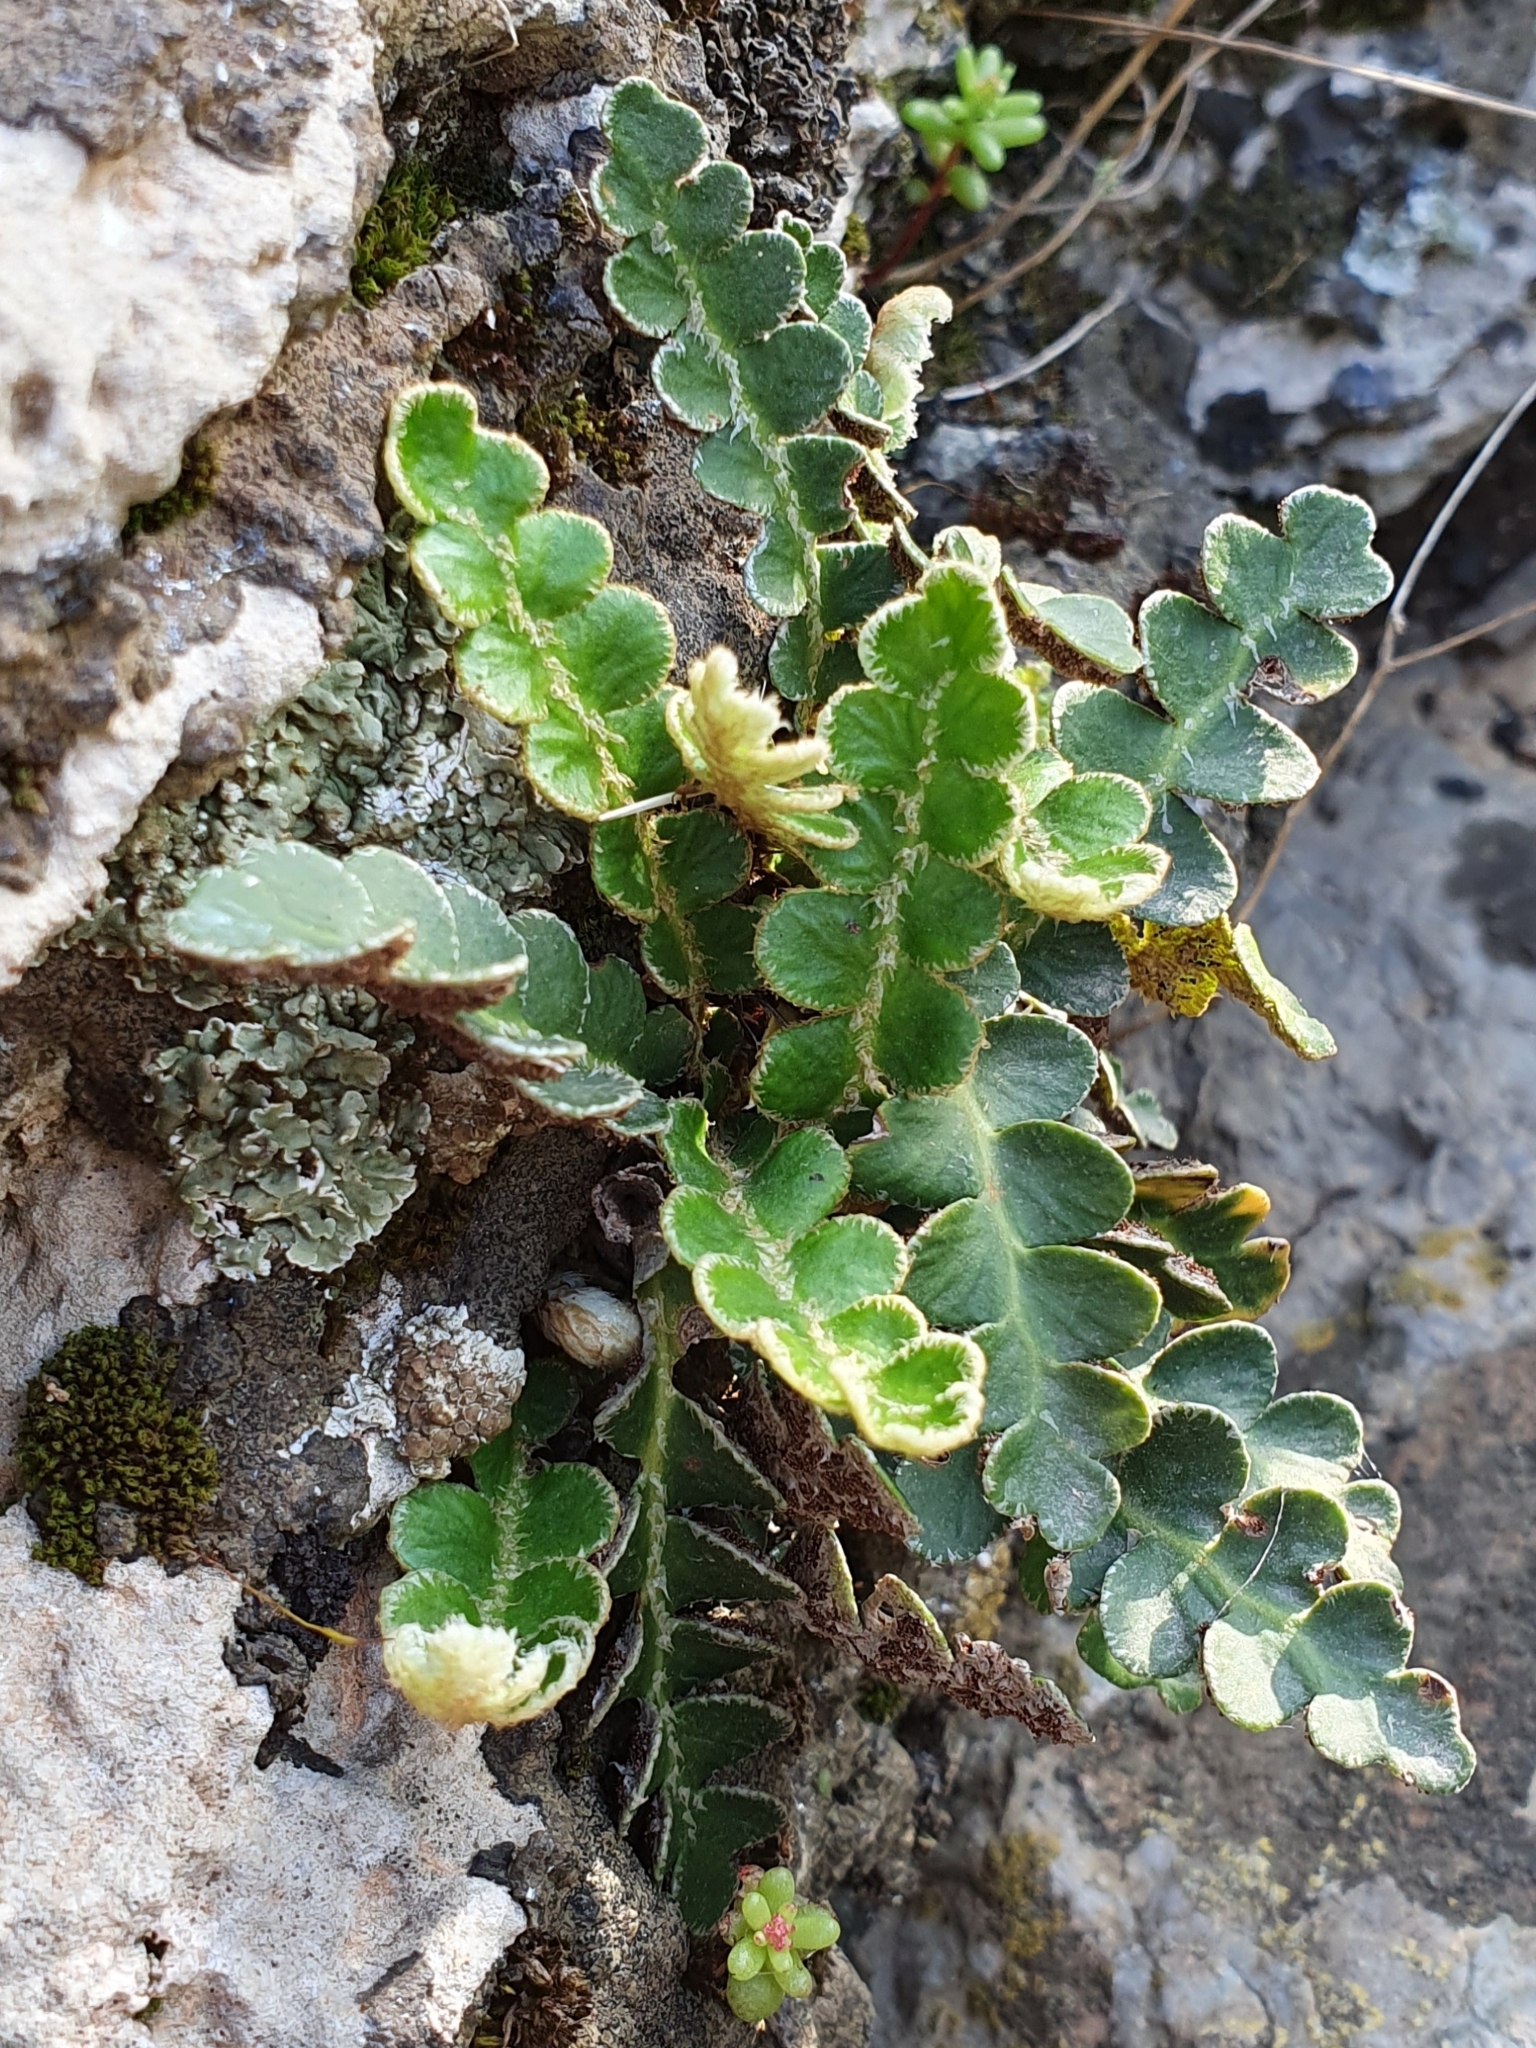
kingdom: Plantae
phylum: Tracheophyta
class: Polypodiopsida
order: Polypodiales
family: Aspleniaceae
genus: Asplenium
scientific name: Asplenium ceterach
